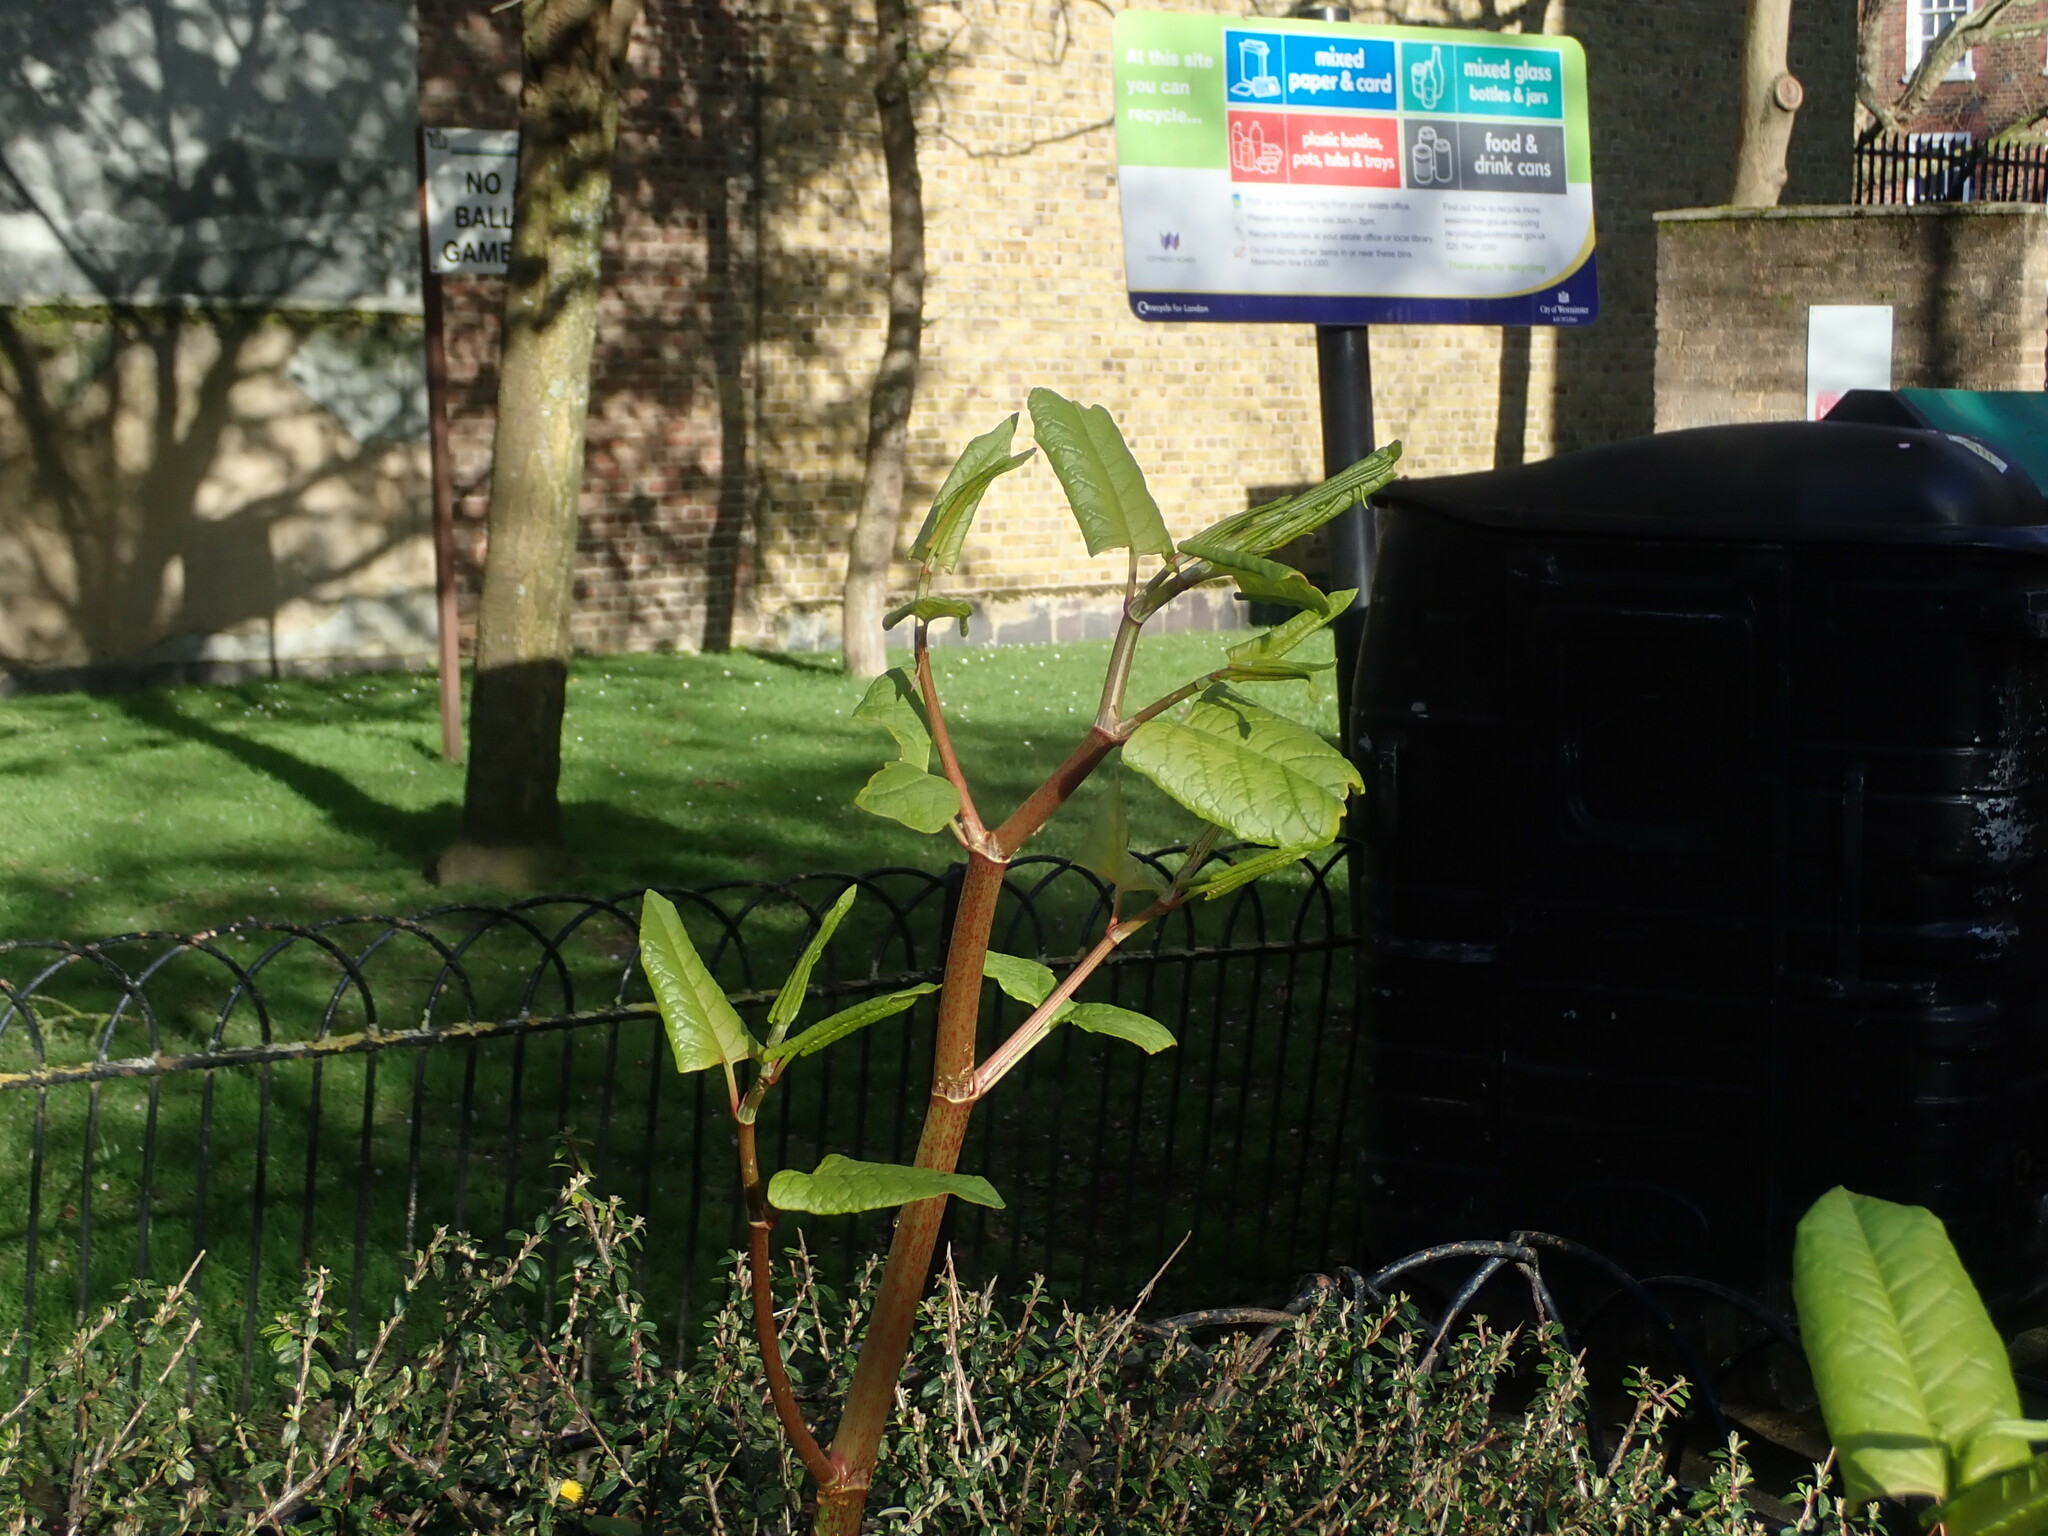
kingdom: Plantae
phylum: Tracheophyta
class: Magnoliopsida
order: Caryophyllales
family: Polygonaceae
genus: Reynoutria
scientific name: Reynoutria japonica
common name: Japanese knotweed
